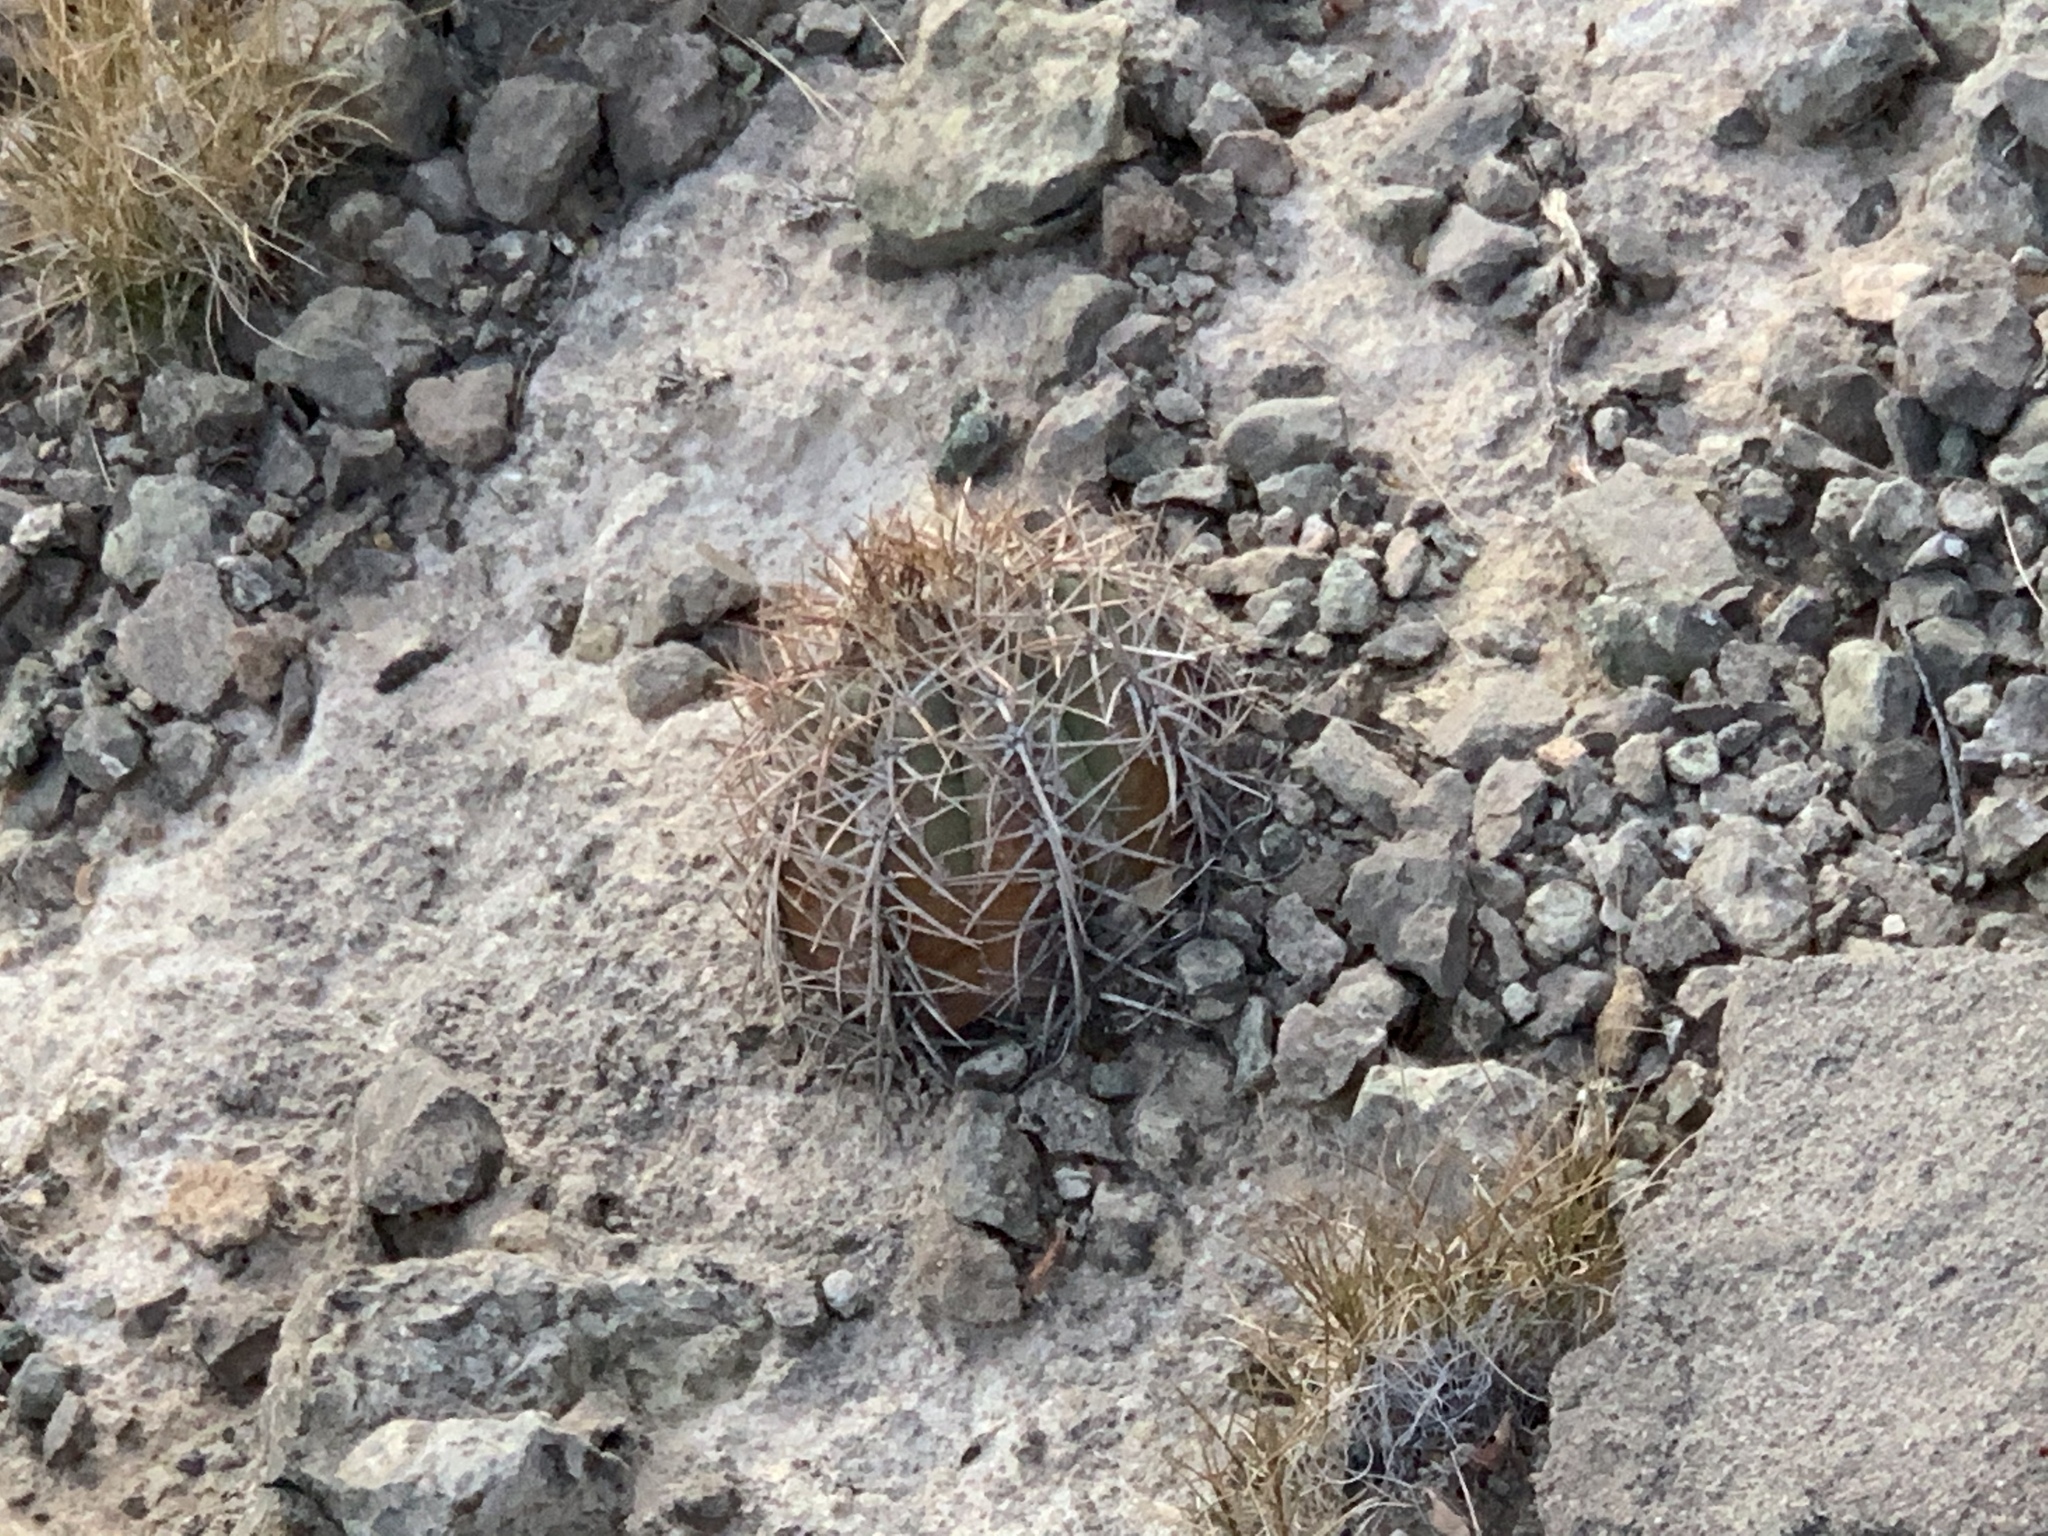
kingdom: Plantae
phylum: Tracheophyta
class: Magnoliopsida
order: Caryophyllales
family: Cactaceae
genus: Echinocactus
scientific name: Echinocactus horizonthalonius
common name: Devilshead
